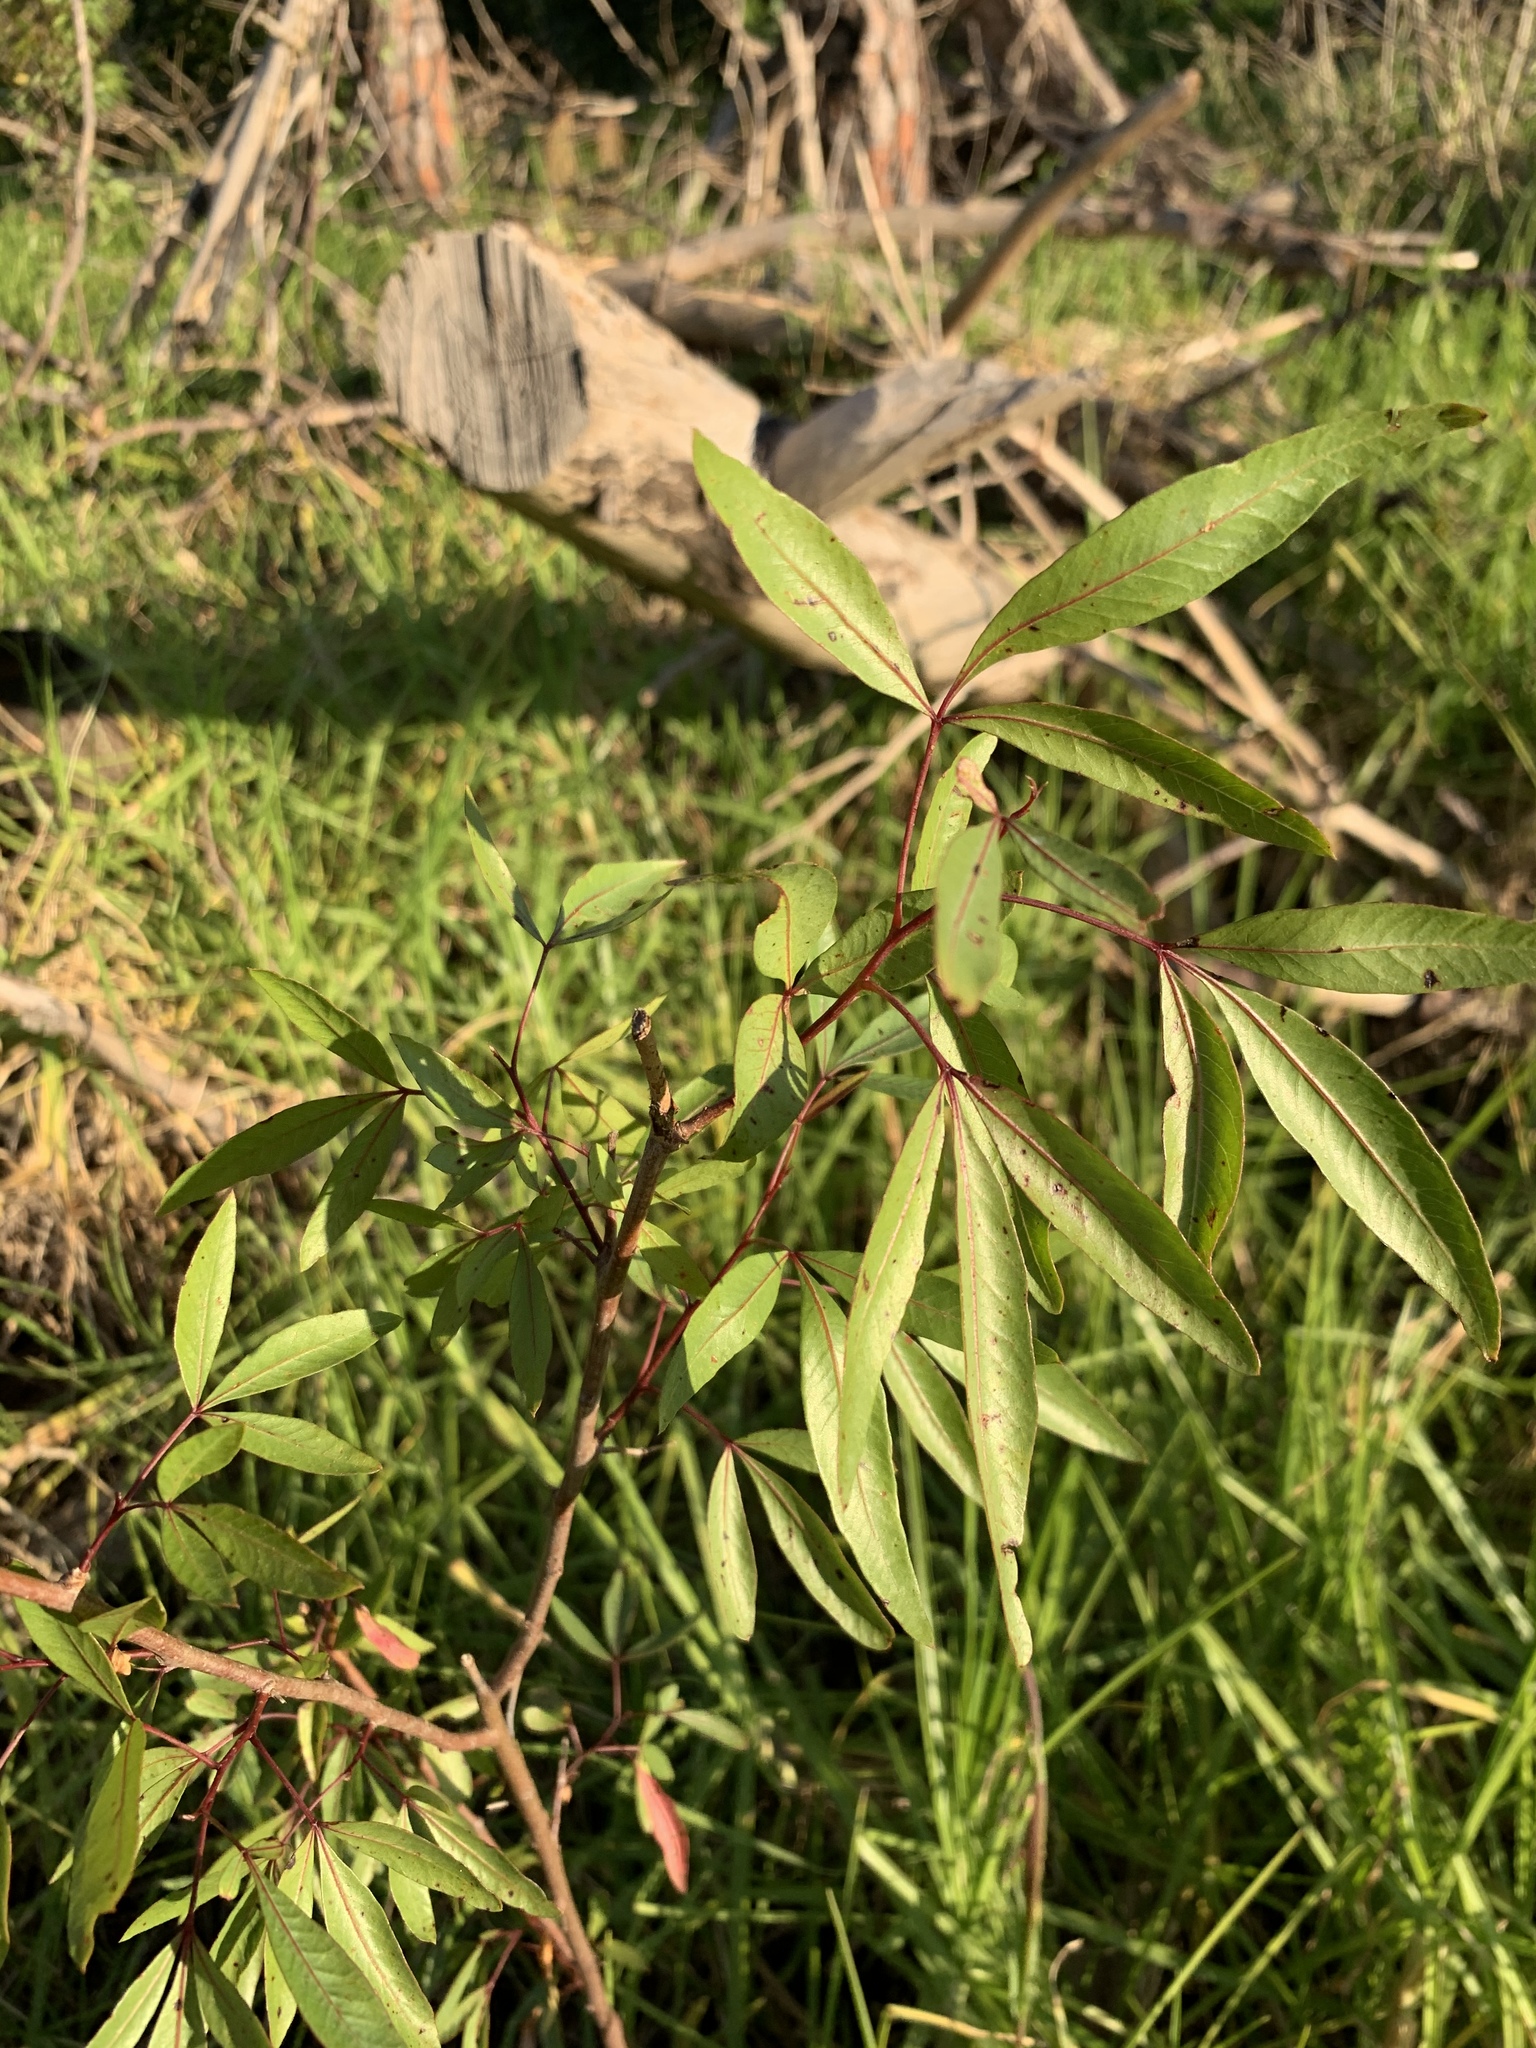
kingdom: Plantae
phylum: Tracheophyta
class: Magnoliopsida
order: Sapindales
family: Anacardiaceae
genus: Searsia
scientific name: Searsia pendulina
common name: White karee
